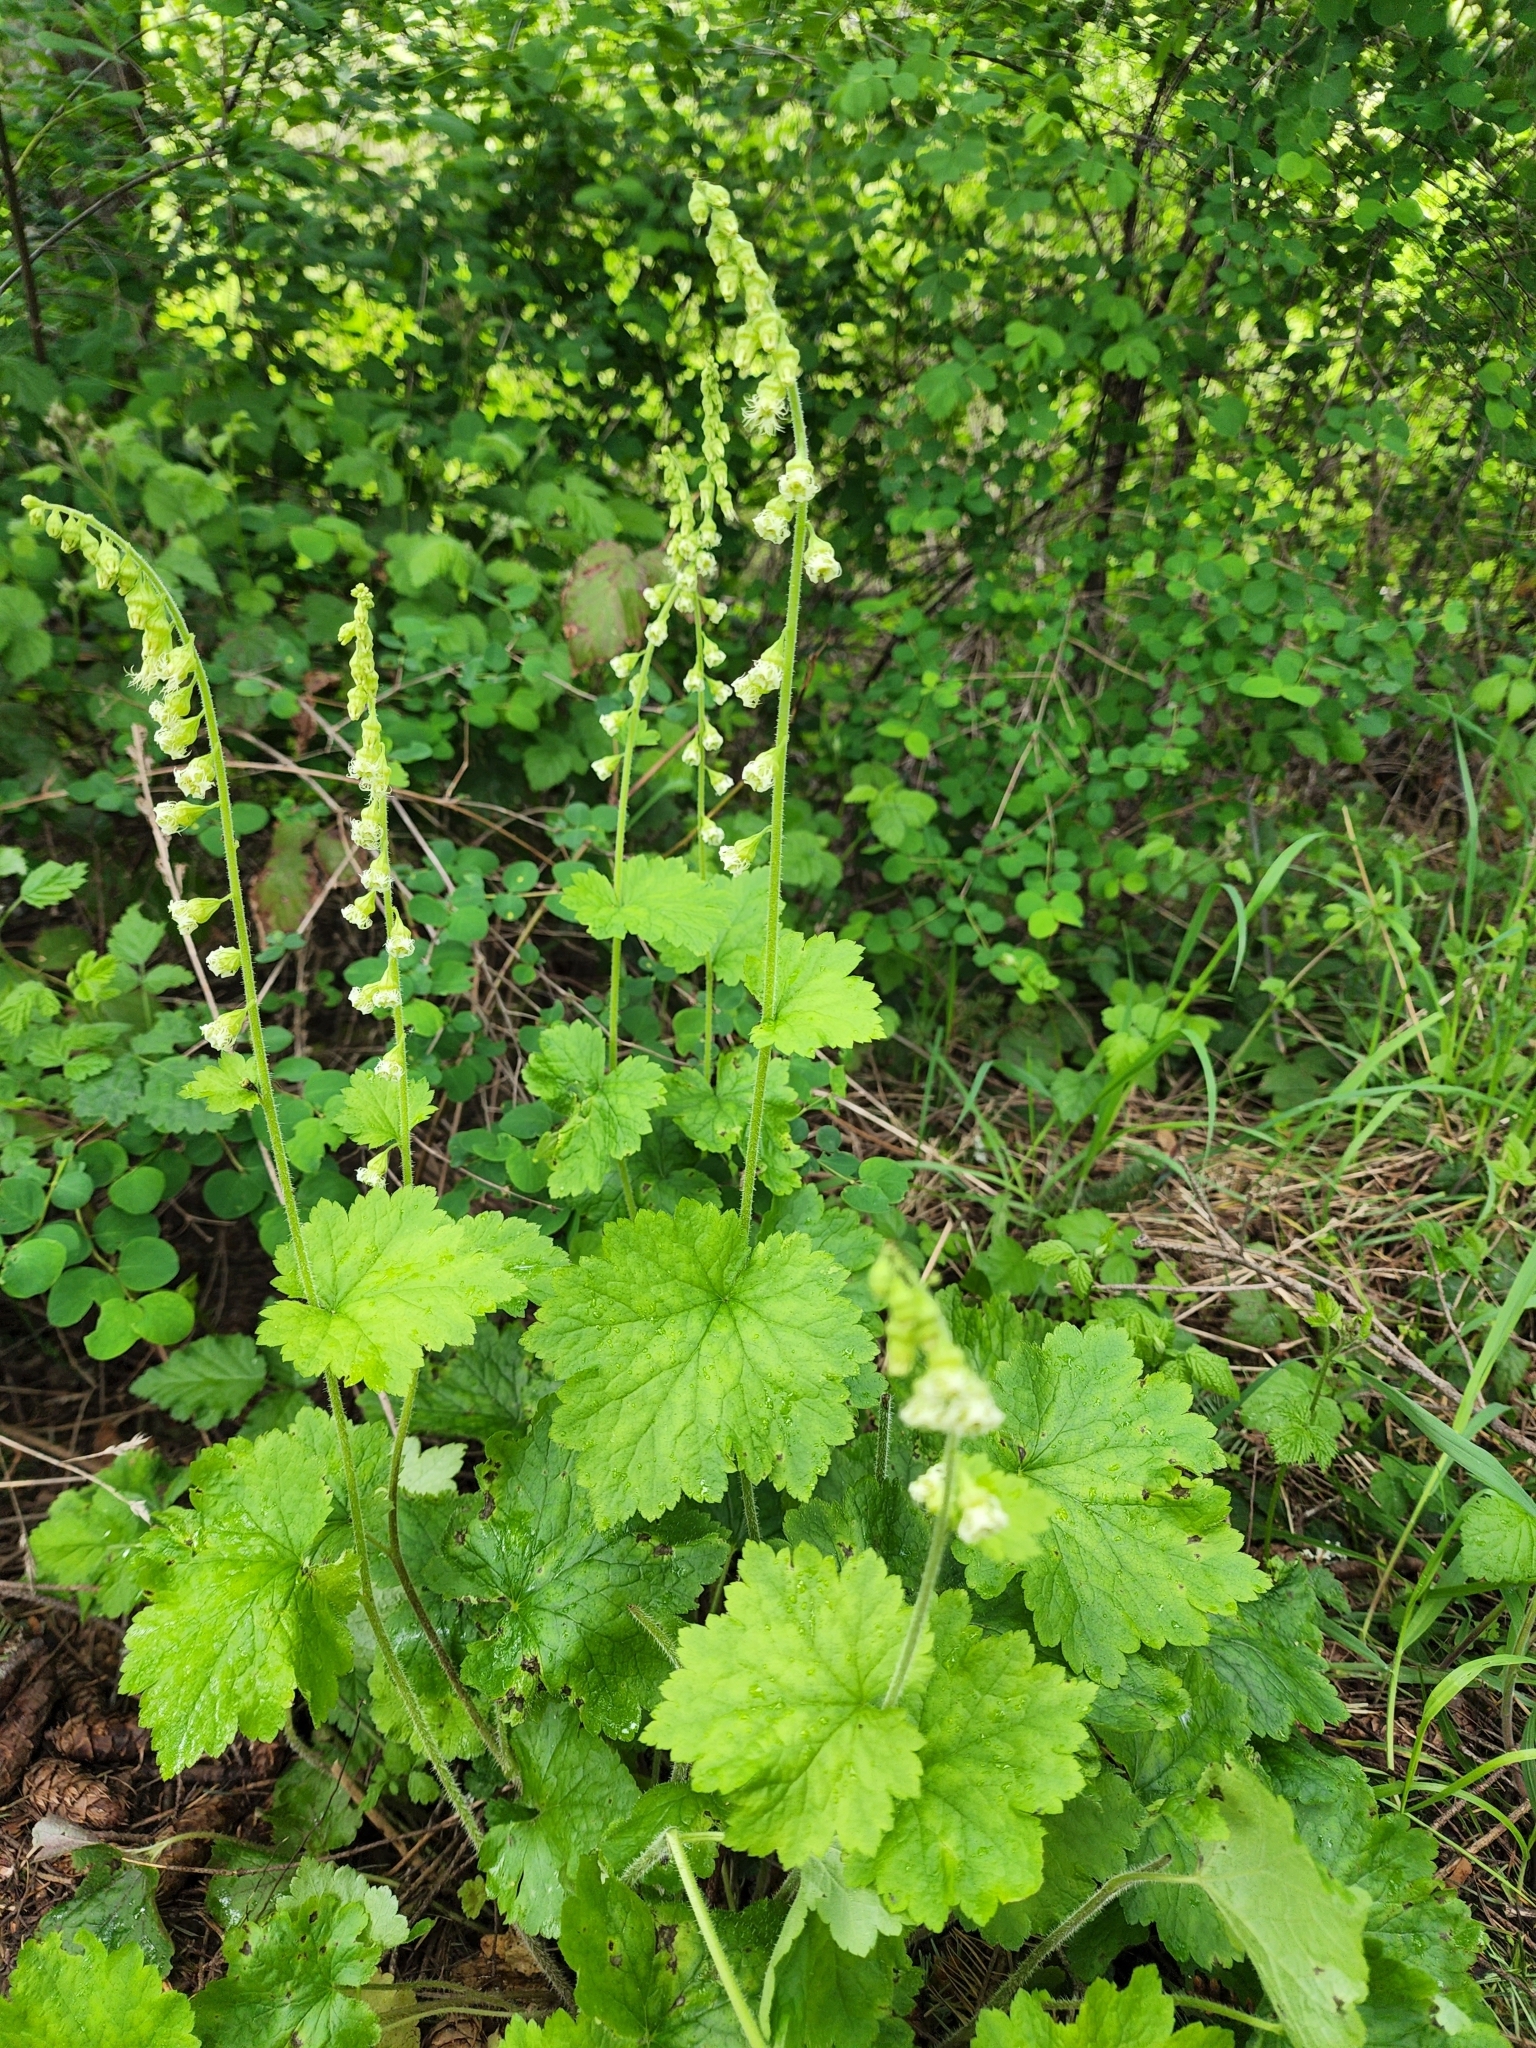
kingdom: Plantae
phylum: Tracheophyta
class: Magnoliopsida
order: Saxifragales
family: Saxifragaceae
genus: Tellima
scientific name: Tellima grandiflora
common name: Fringecups
